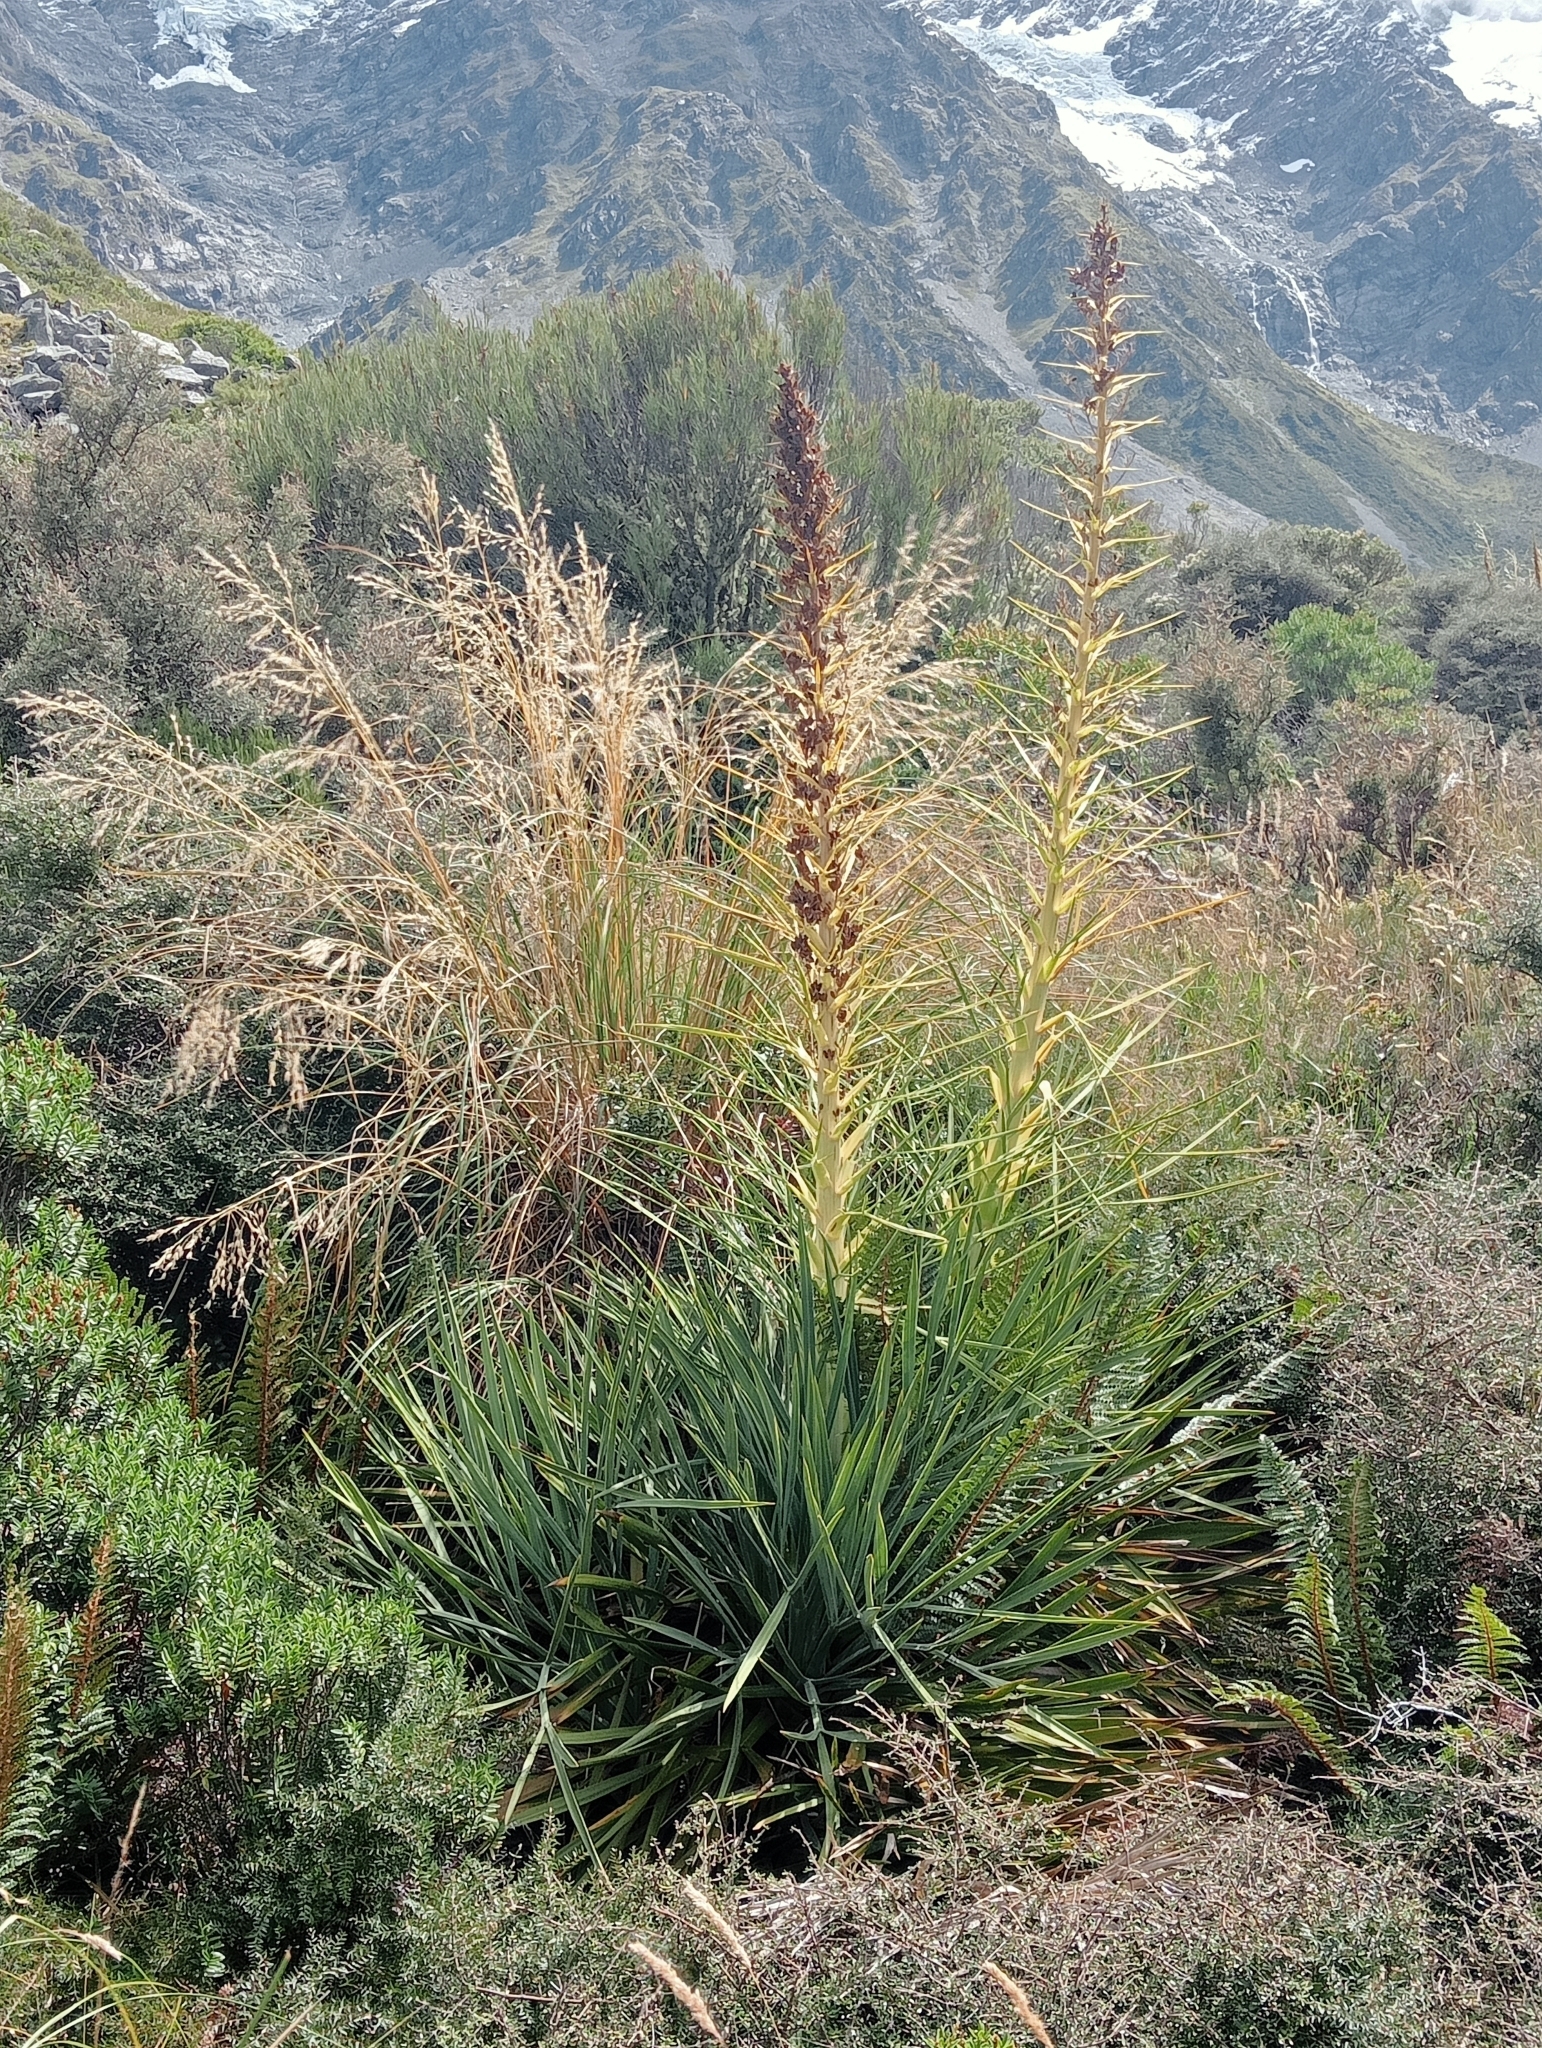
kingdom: Plantae
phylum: Tracheophyta
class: Magnoliopsida
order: Apiales
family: Apiaceae
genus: Aciphylla
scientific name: Aciphylla scott-thomsonii
